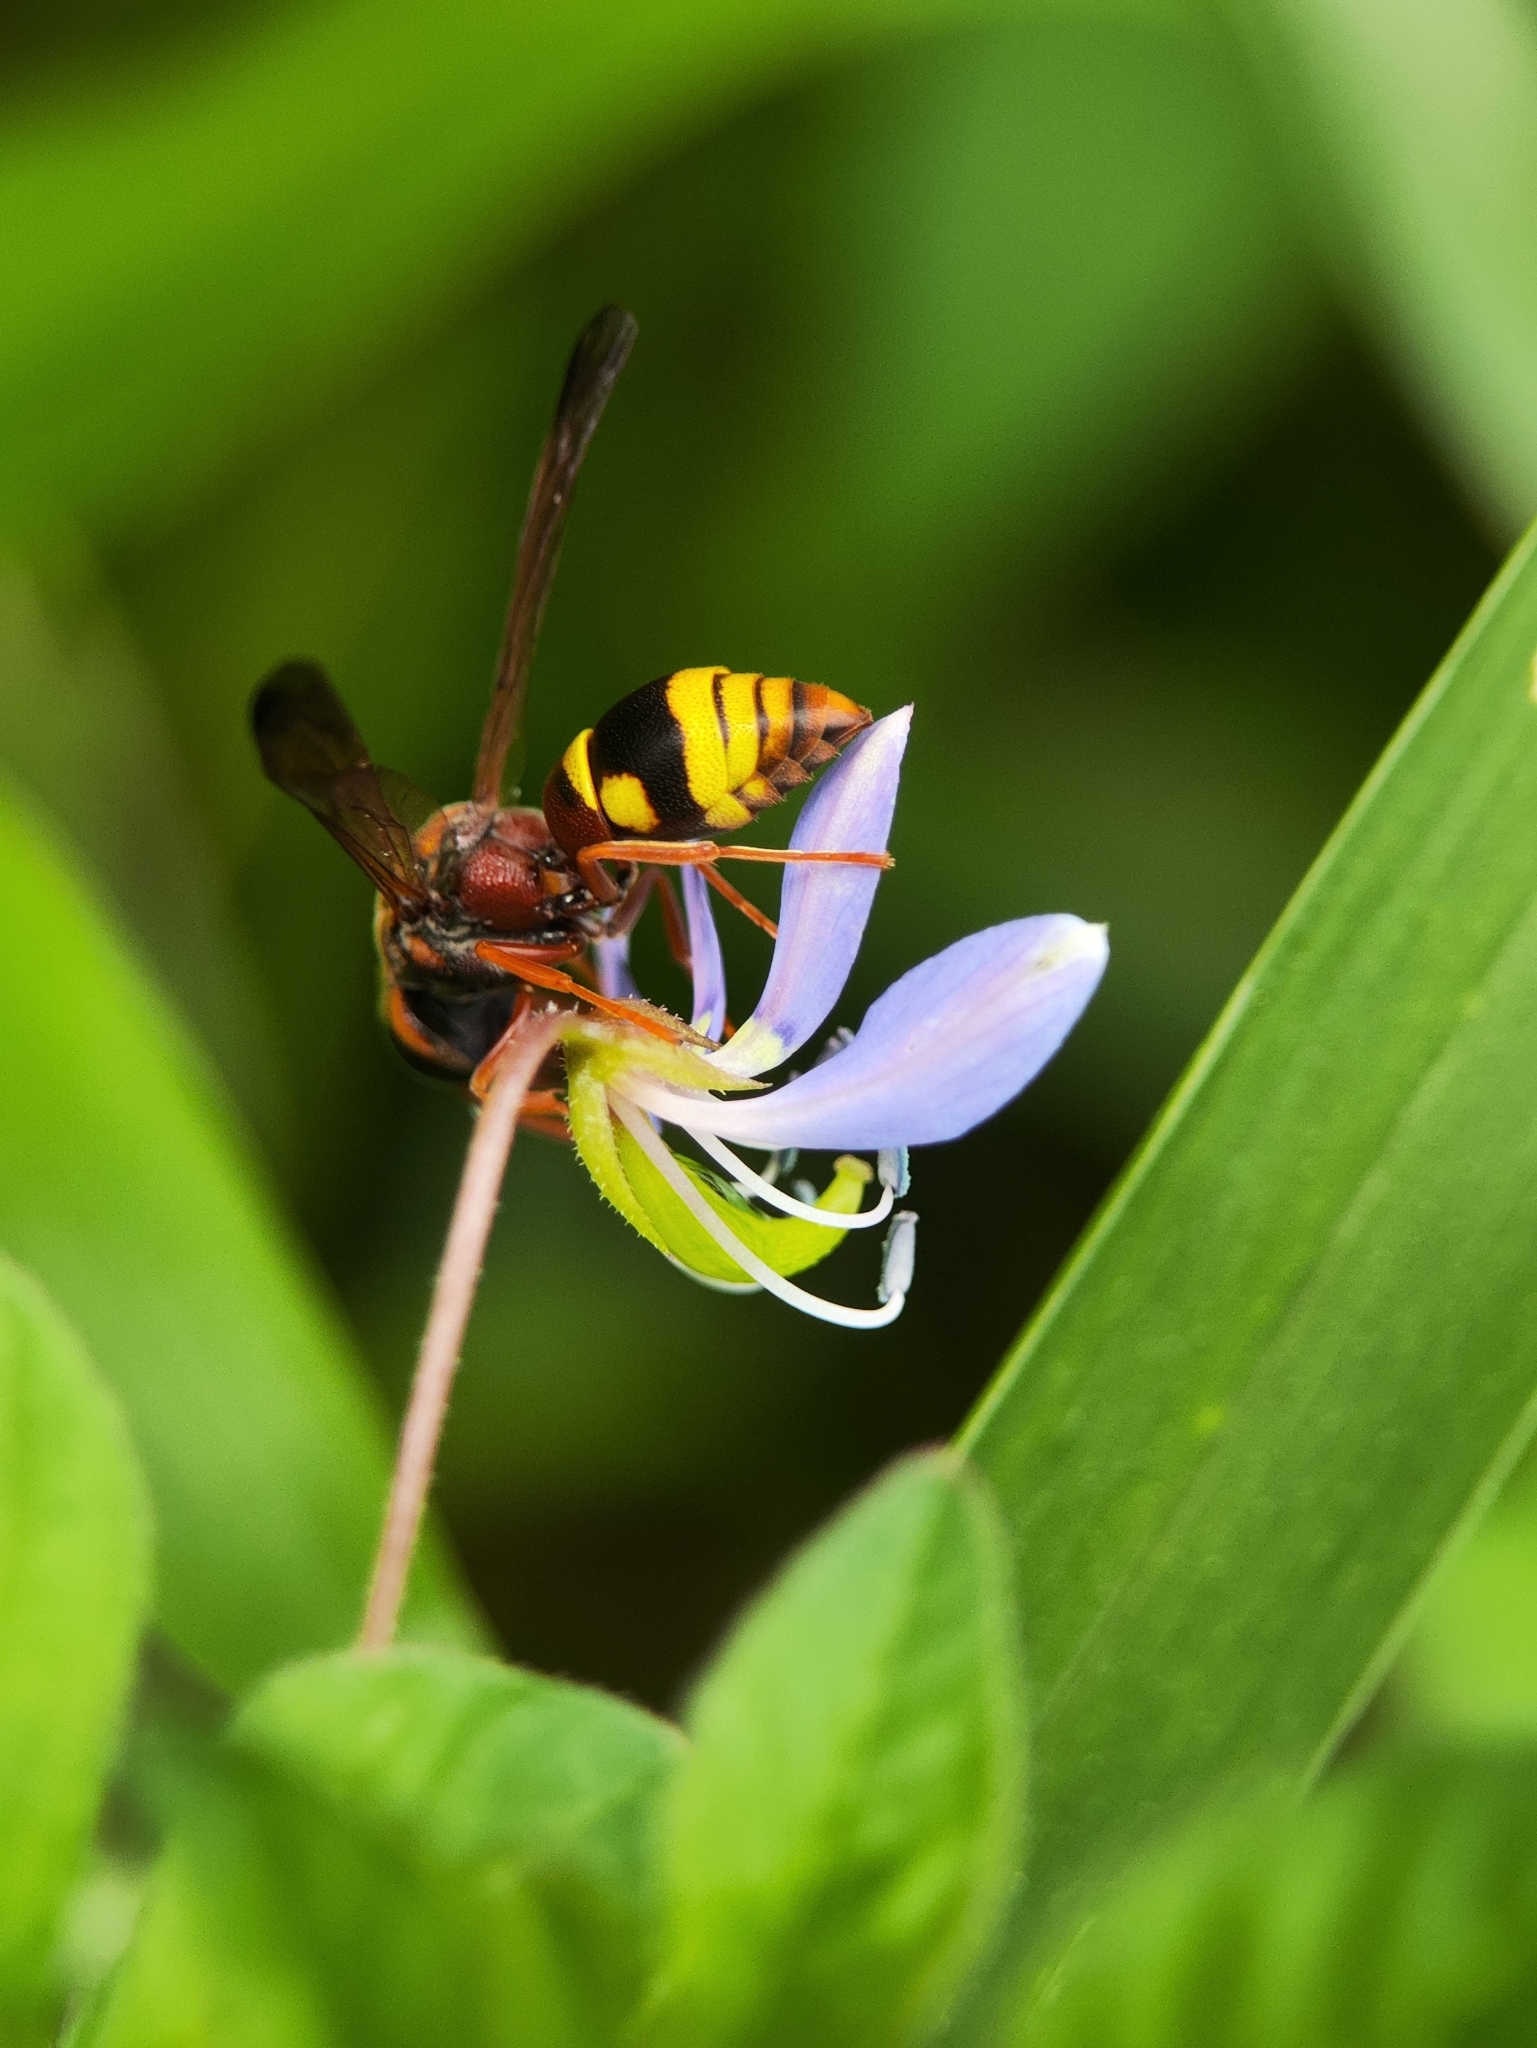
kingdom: Animalia
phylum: Arthropoda
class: Insecta
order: Hymenoptera
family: Eumenidae
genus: Antepipona
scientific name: Antepipona rufescens
